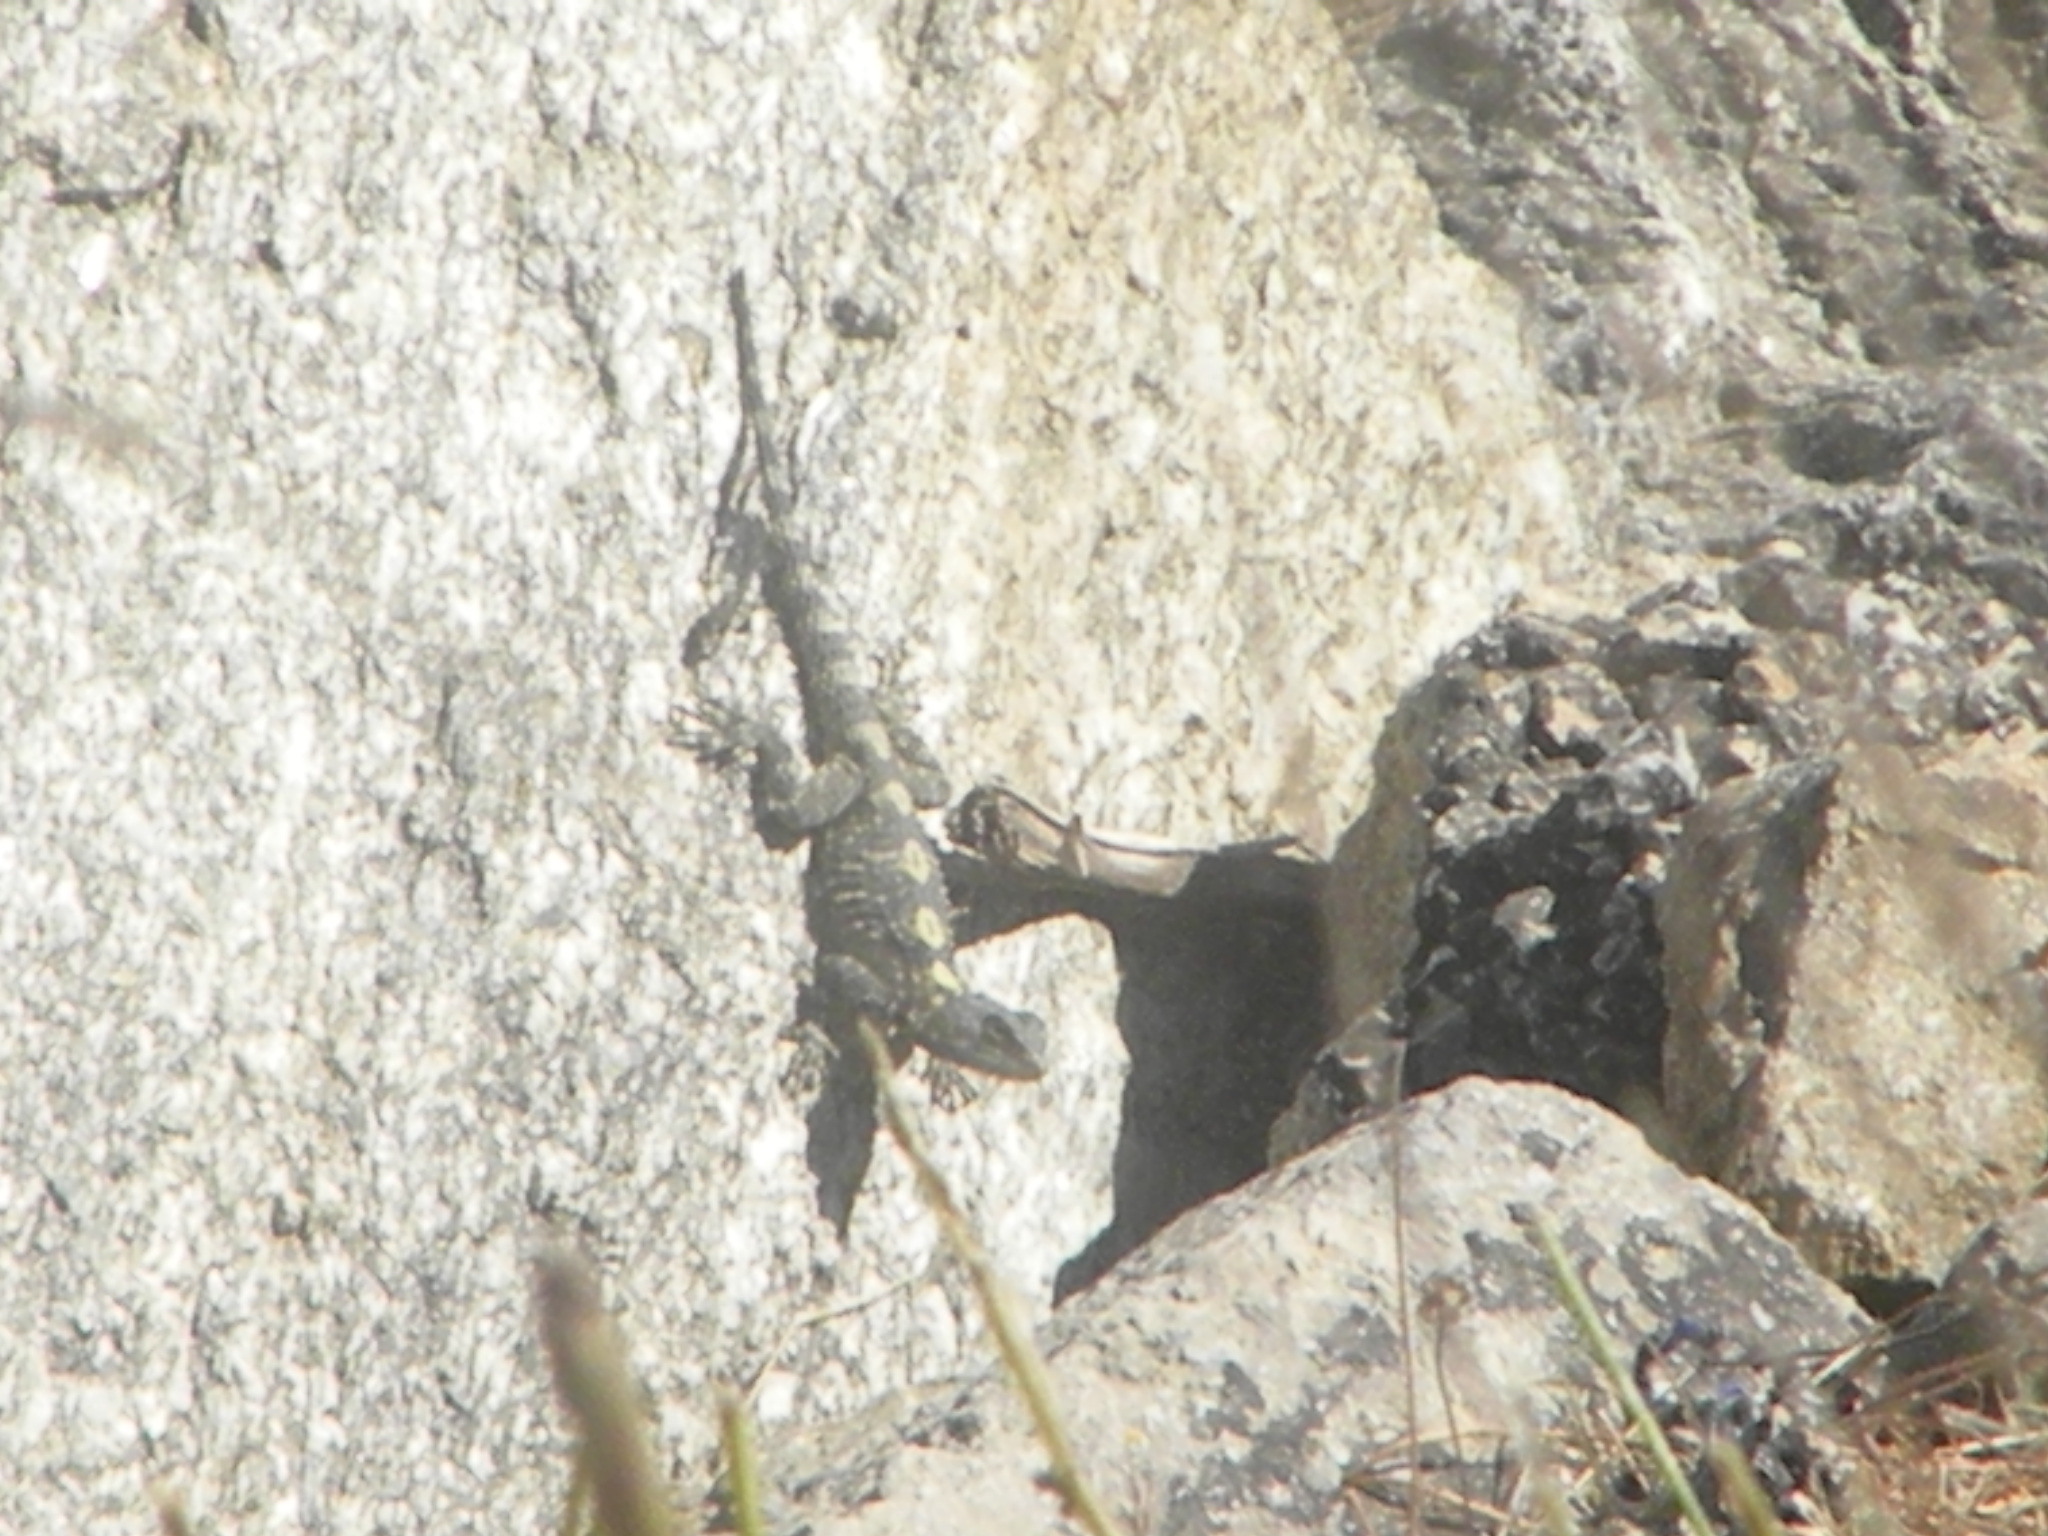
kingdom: Animalia
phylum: Chordata
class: Squamata
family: Agamidae
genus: Stellagama
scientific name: Stellagama stellio
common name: Starred agama
